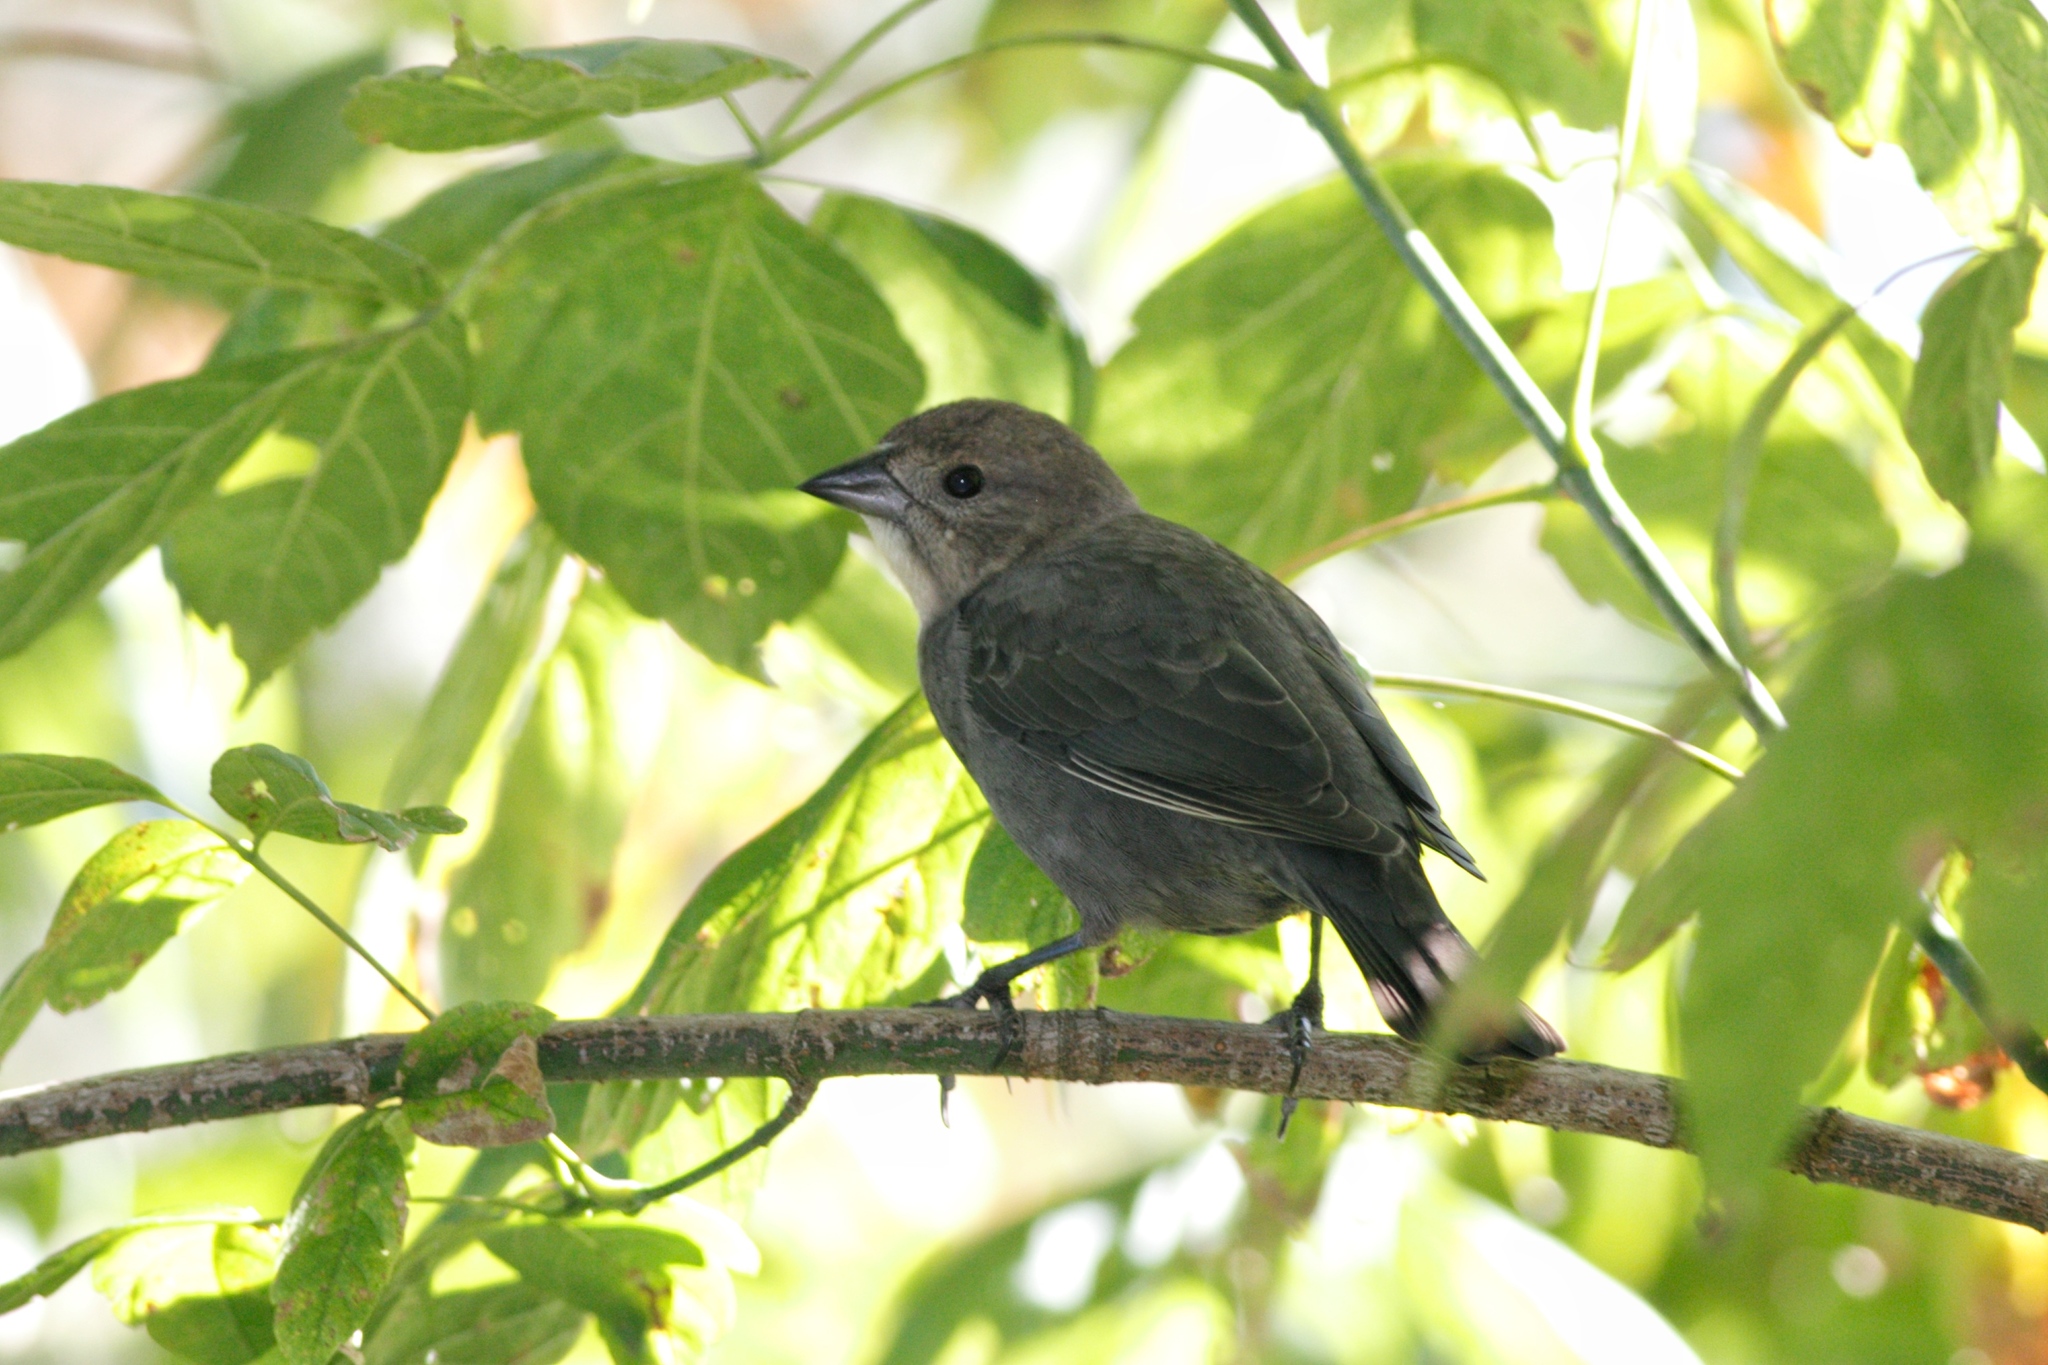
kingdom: Animalia
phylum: Chordata
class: Aves
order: Passeriformes
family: Icteridae
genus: Molothrus
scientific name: Molothrus ater
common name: Brown-headed cowbird
